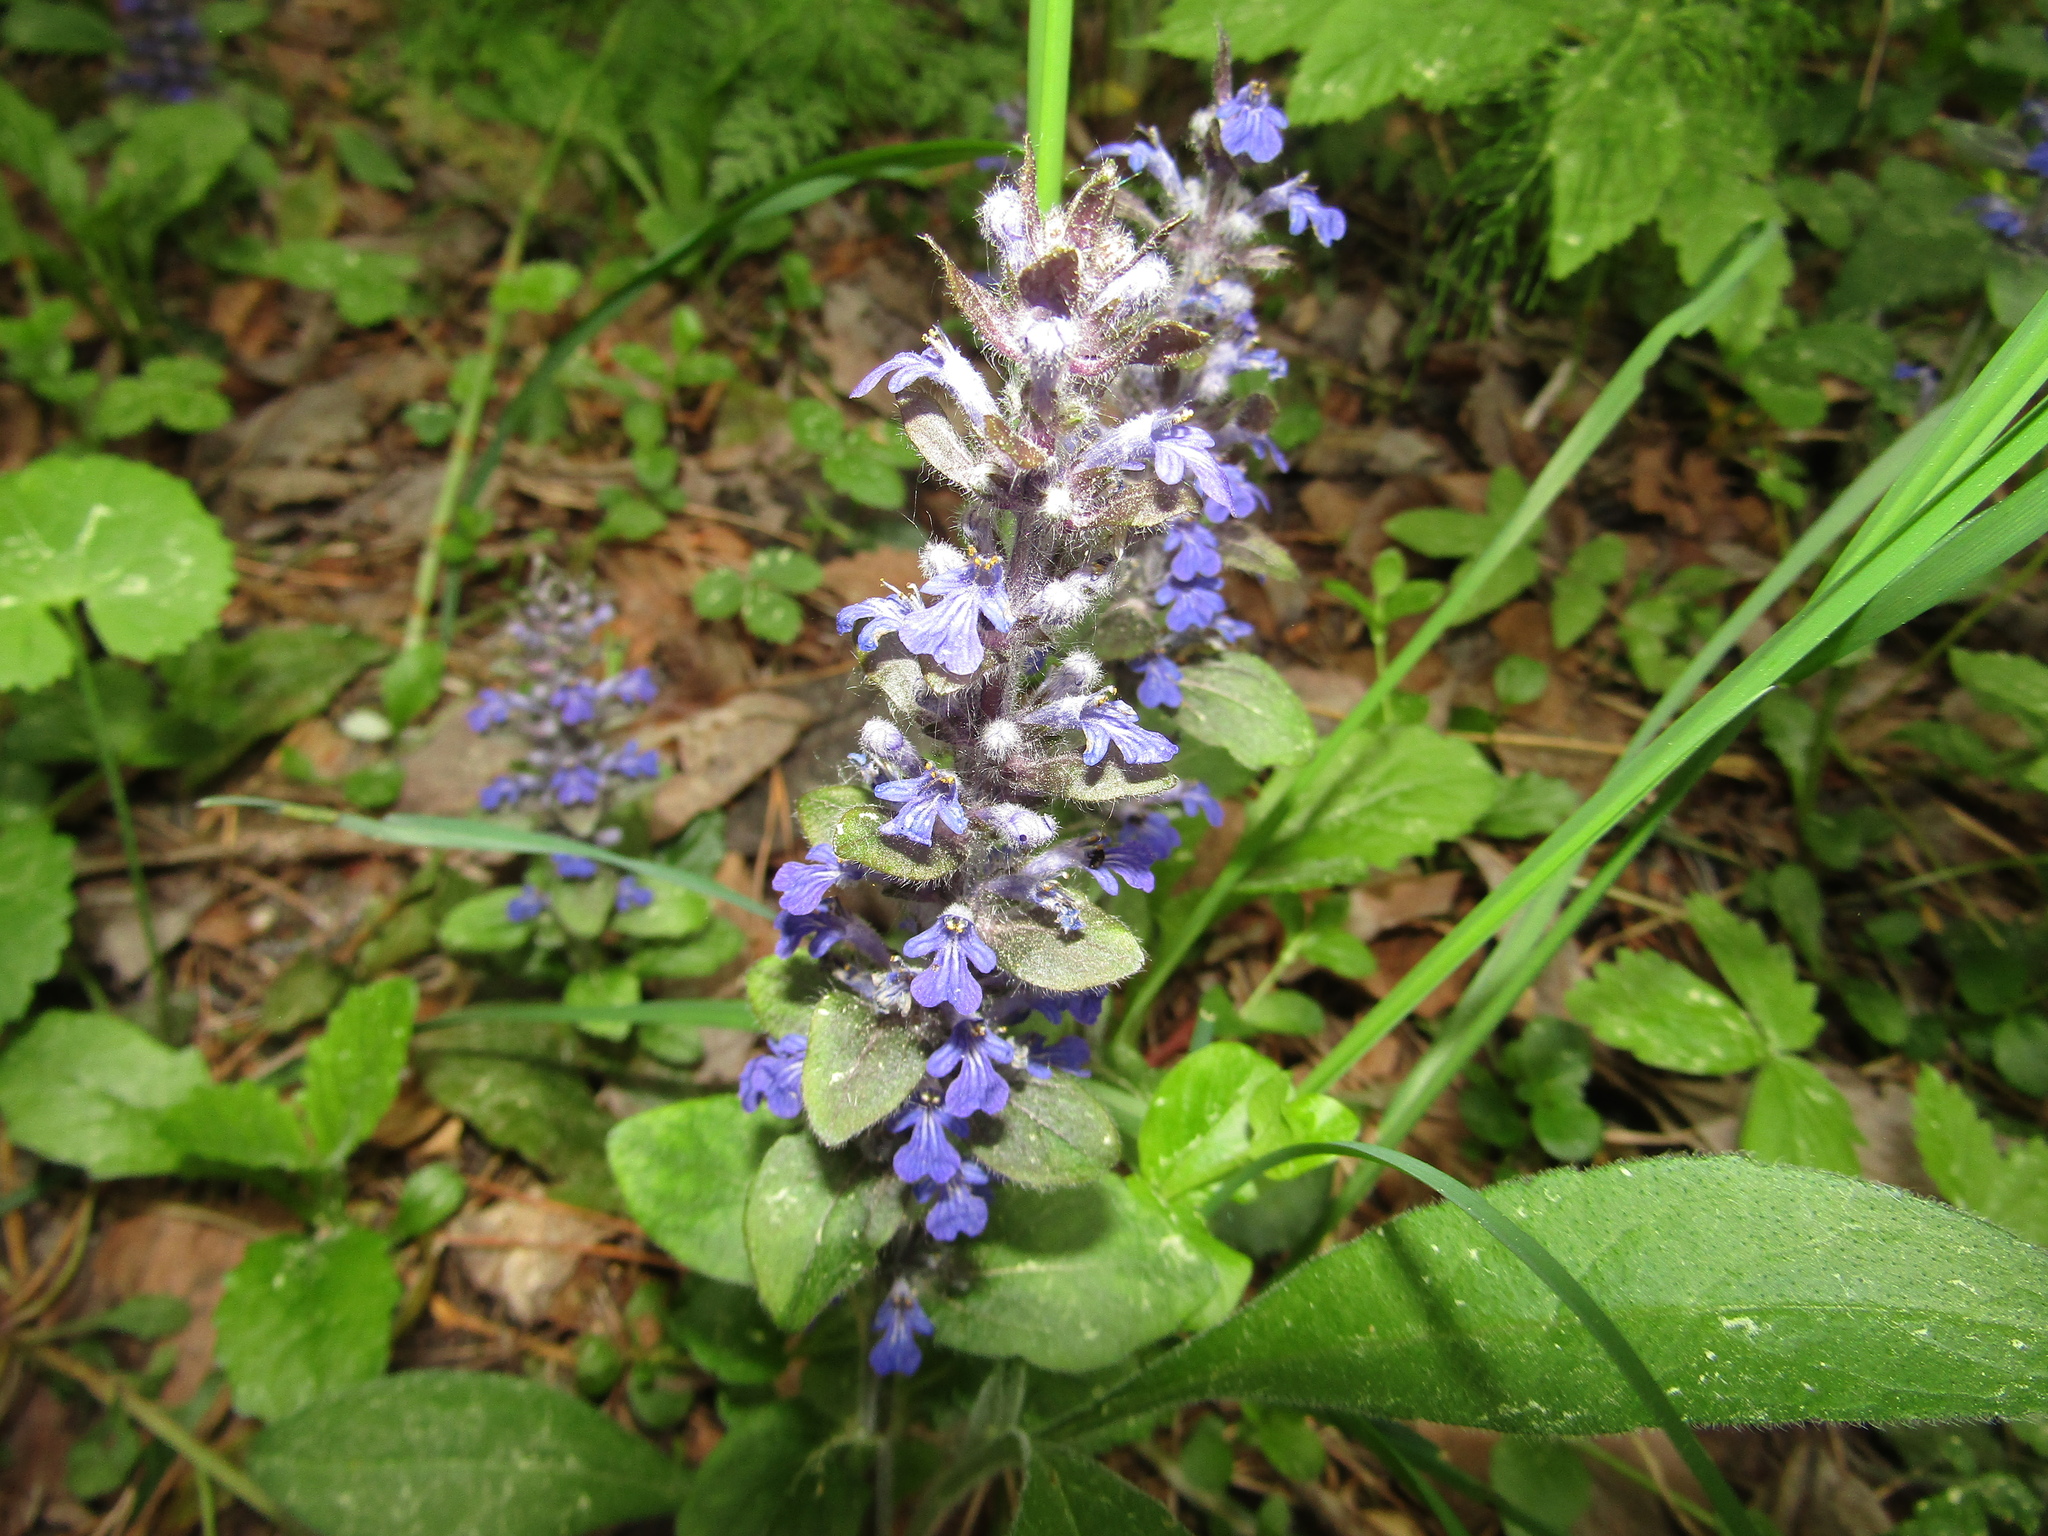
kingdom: Plantae
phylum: Tracheophyta
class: Magnoliopsida
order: Lamiales
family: Lamiaceae
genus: Ajuga
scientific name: Ajuga reptans
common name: Bugle
